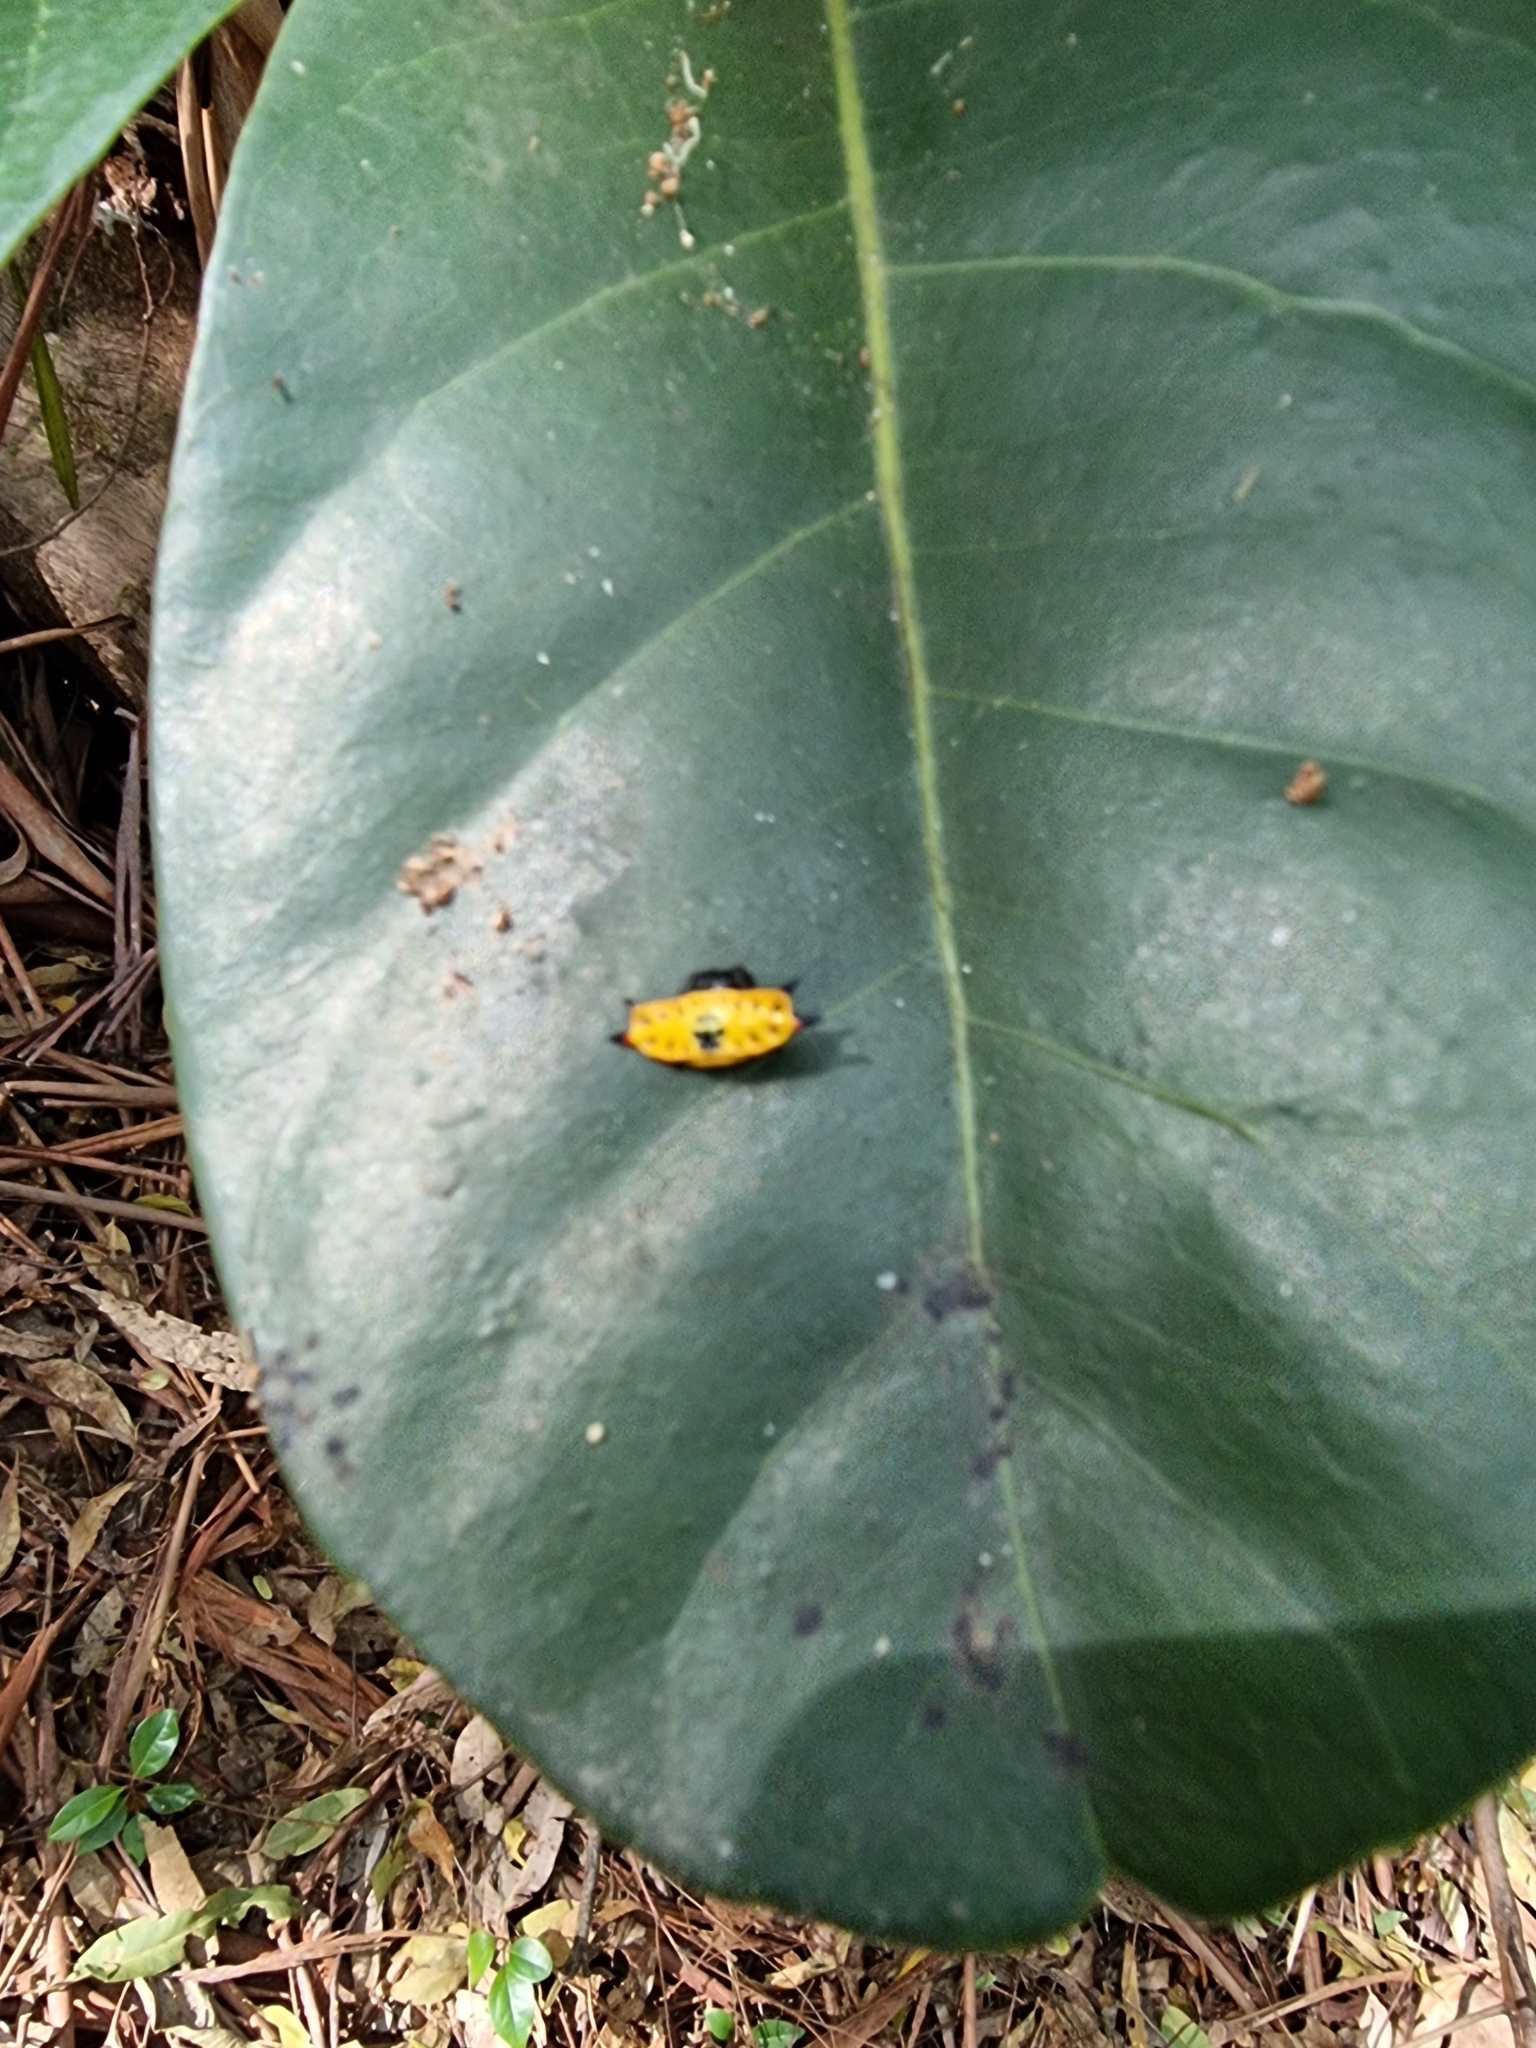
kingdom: Animalia
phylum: Arthropoda
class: Arachnida
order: Araneae
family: Araneidae
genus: Gasteracantha
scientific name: Gasteracantha quadrispinosa
